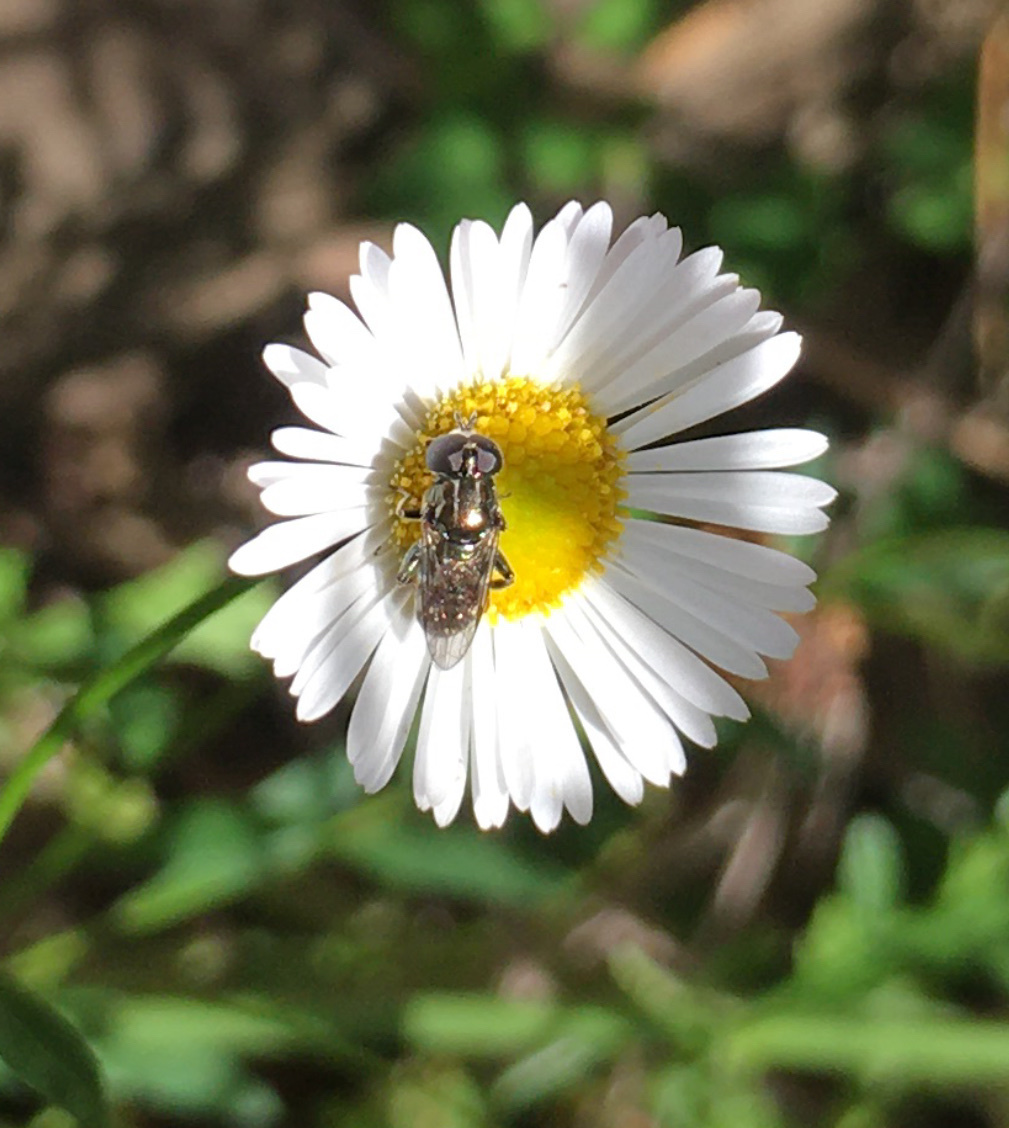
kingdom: Animalia
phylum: Arthropoda
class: Insecta
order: Diptera
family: Syrphidae
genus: Eumerus
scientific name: Eumerus
